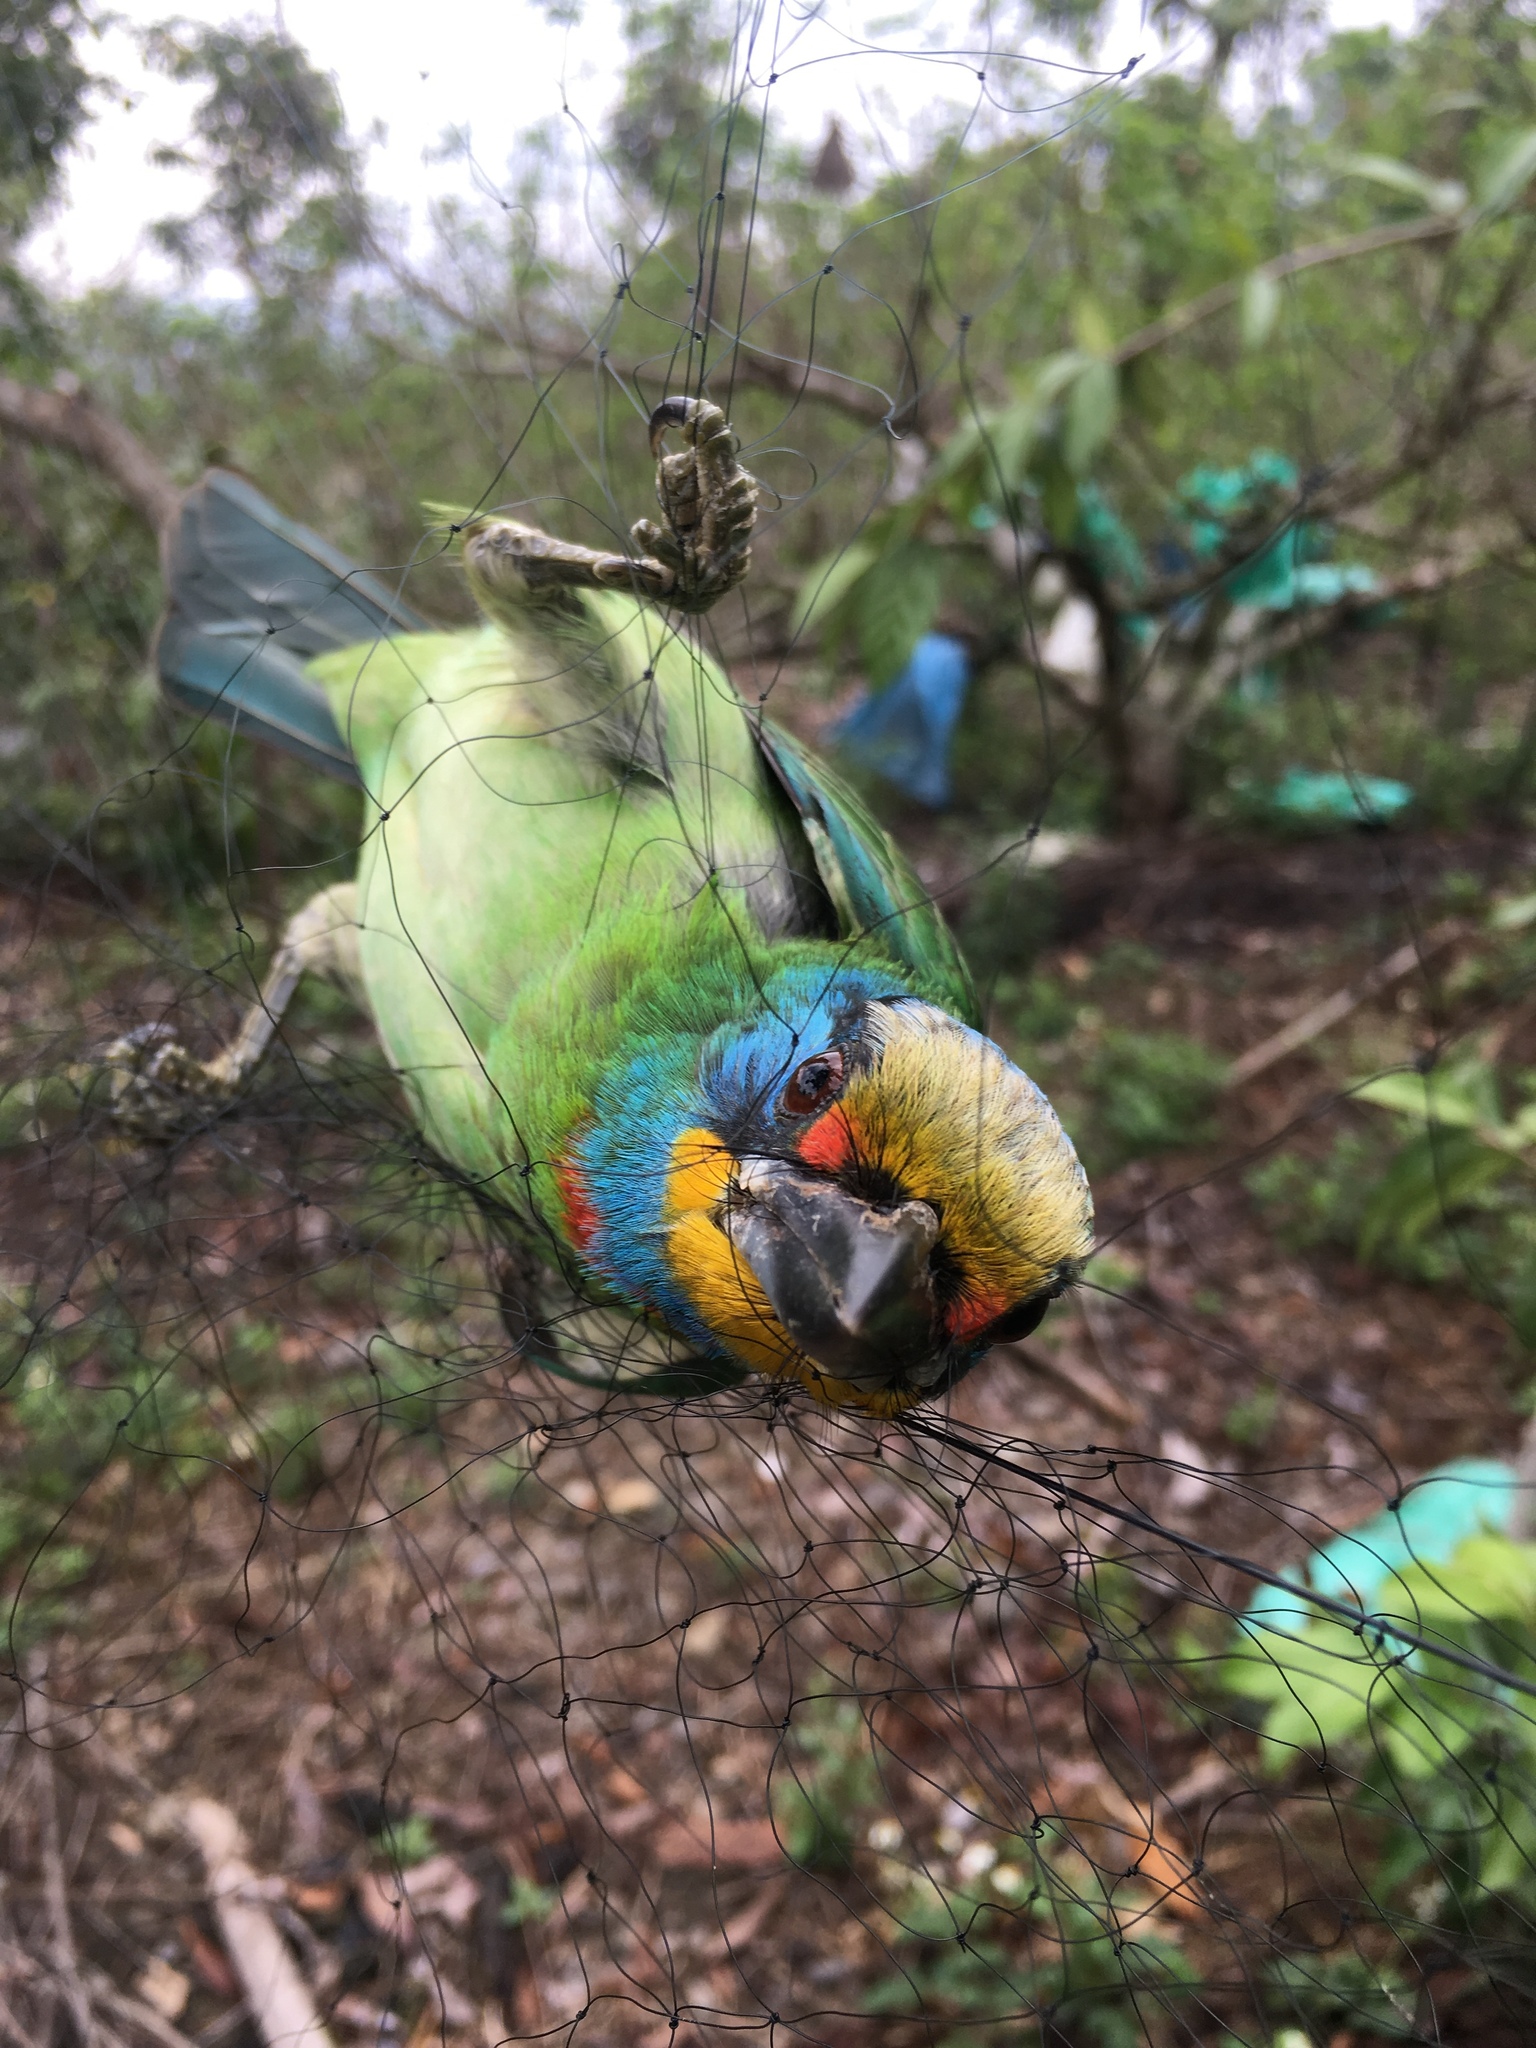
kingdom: Animalia
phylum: Chordata
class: Aves
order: Piciformes
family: Megalaimidae
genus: Psilopogon
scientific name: Psilopogon nuchalis
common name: Taiwan barbet
